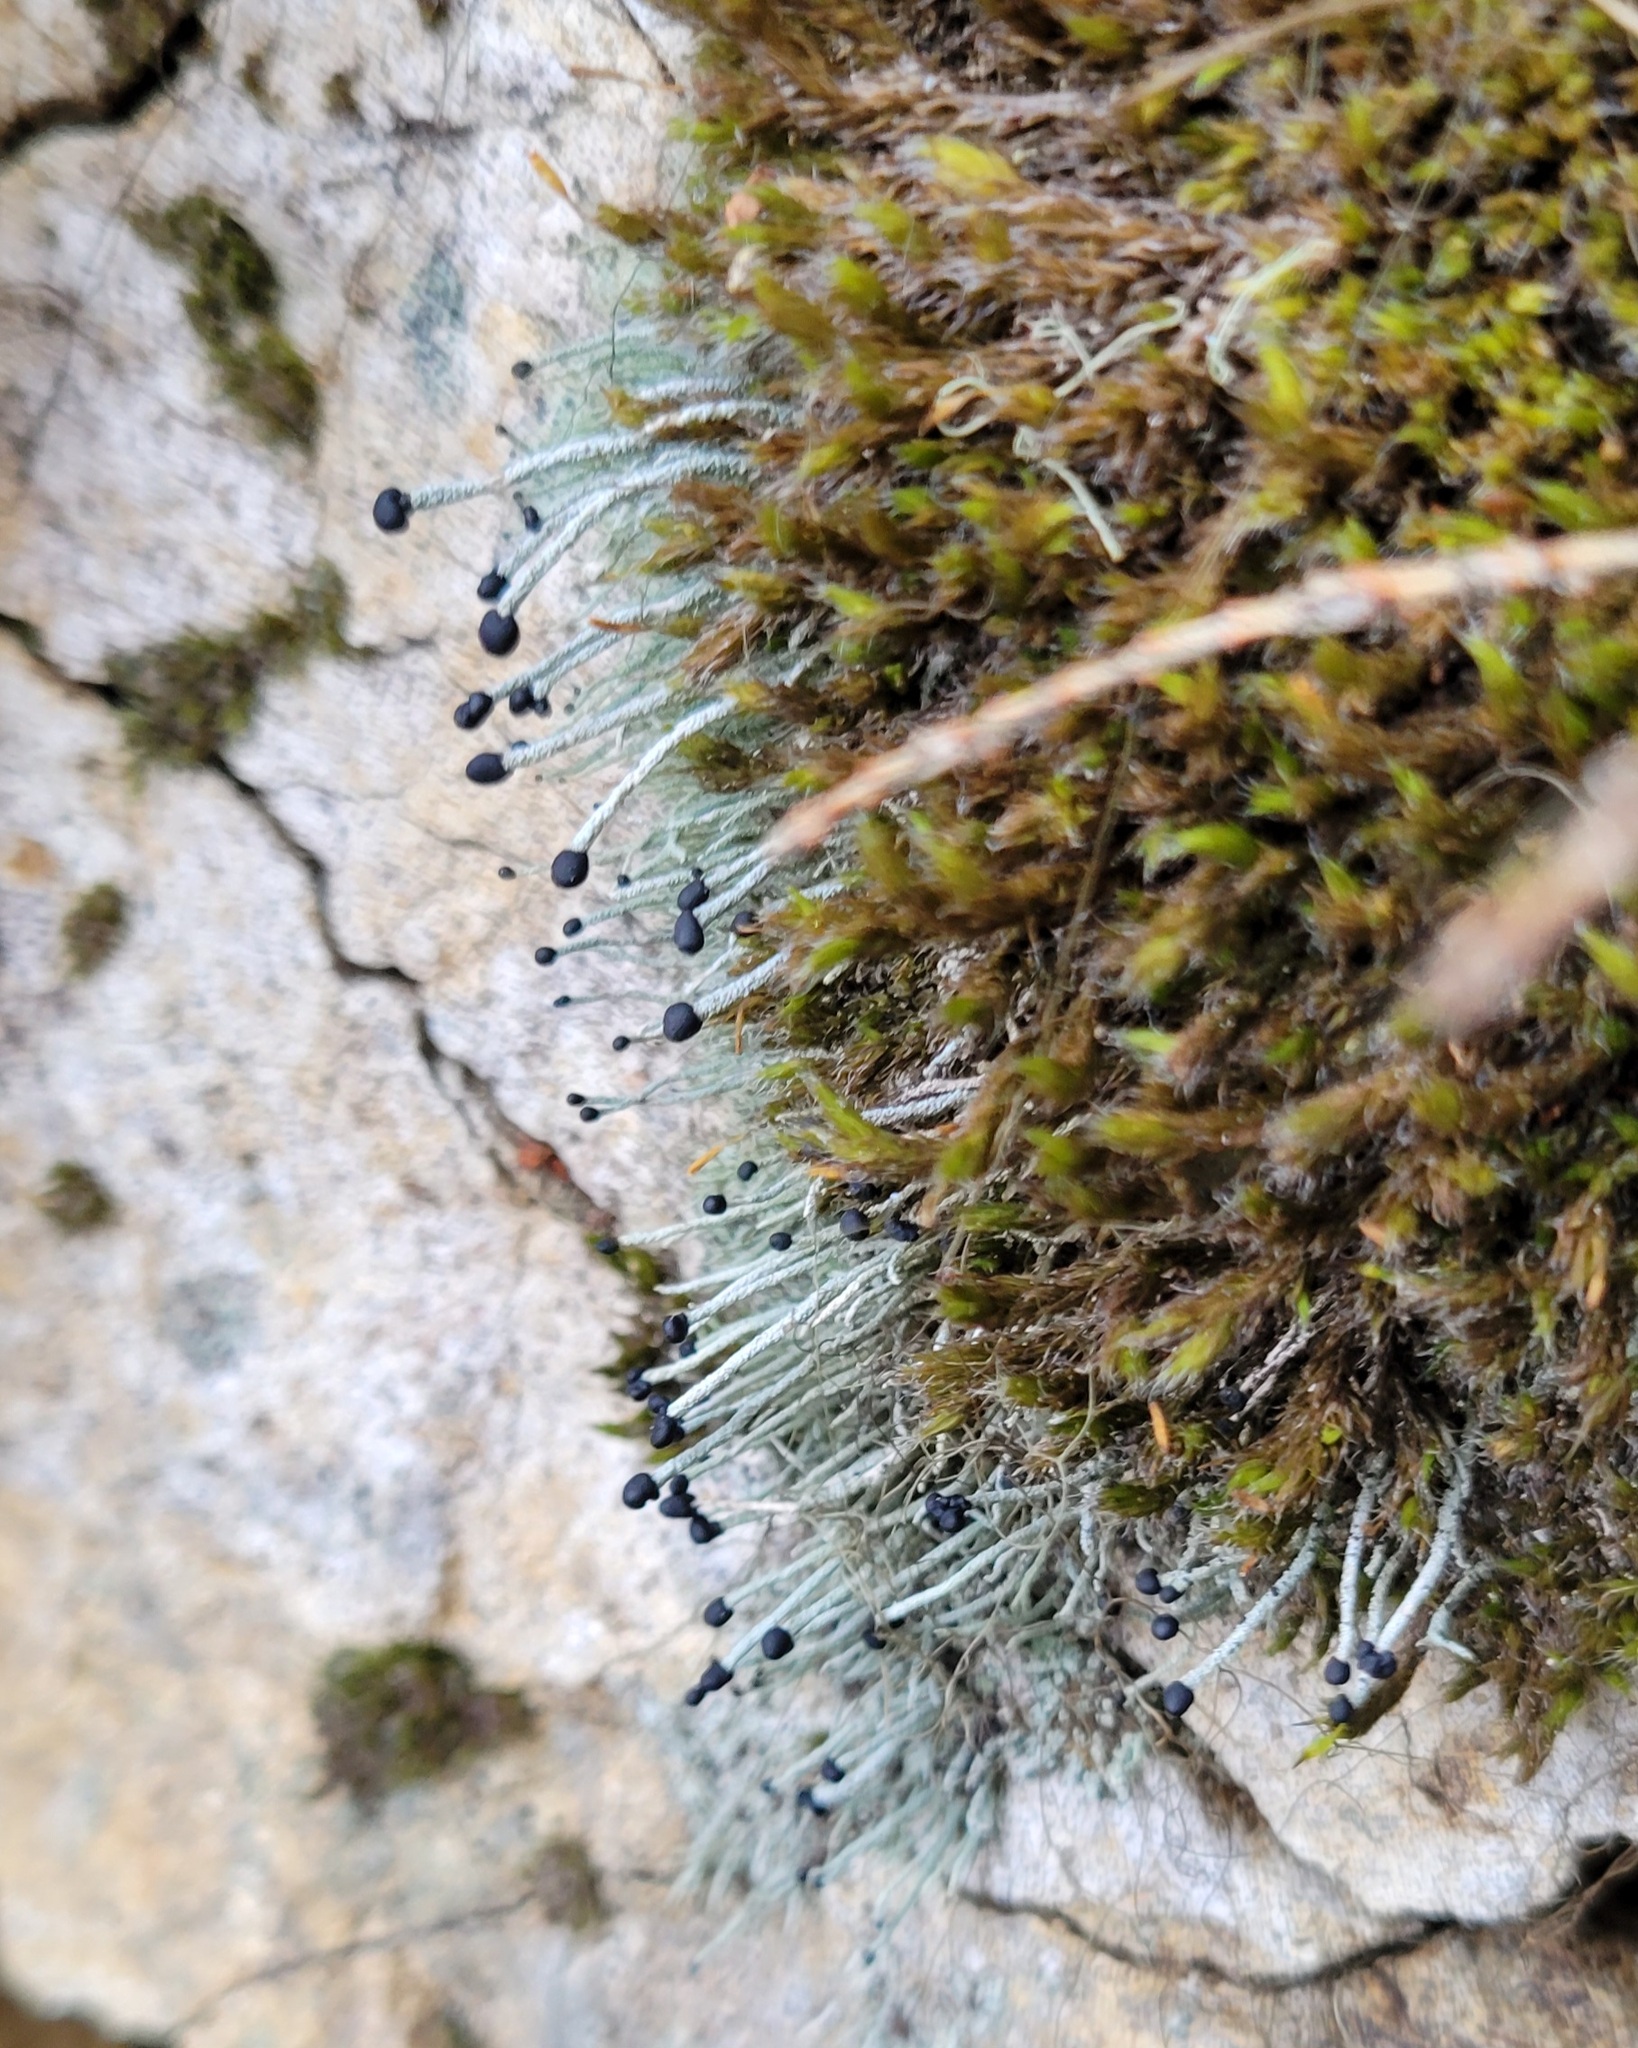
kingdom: Fungi
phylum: Ascomycota
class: Lecanoromycetes
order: Lecanorales
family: Cladoniaceae
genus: Pilophorus
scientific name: Pilophorus acicularis
